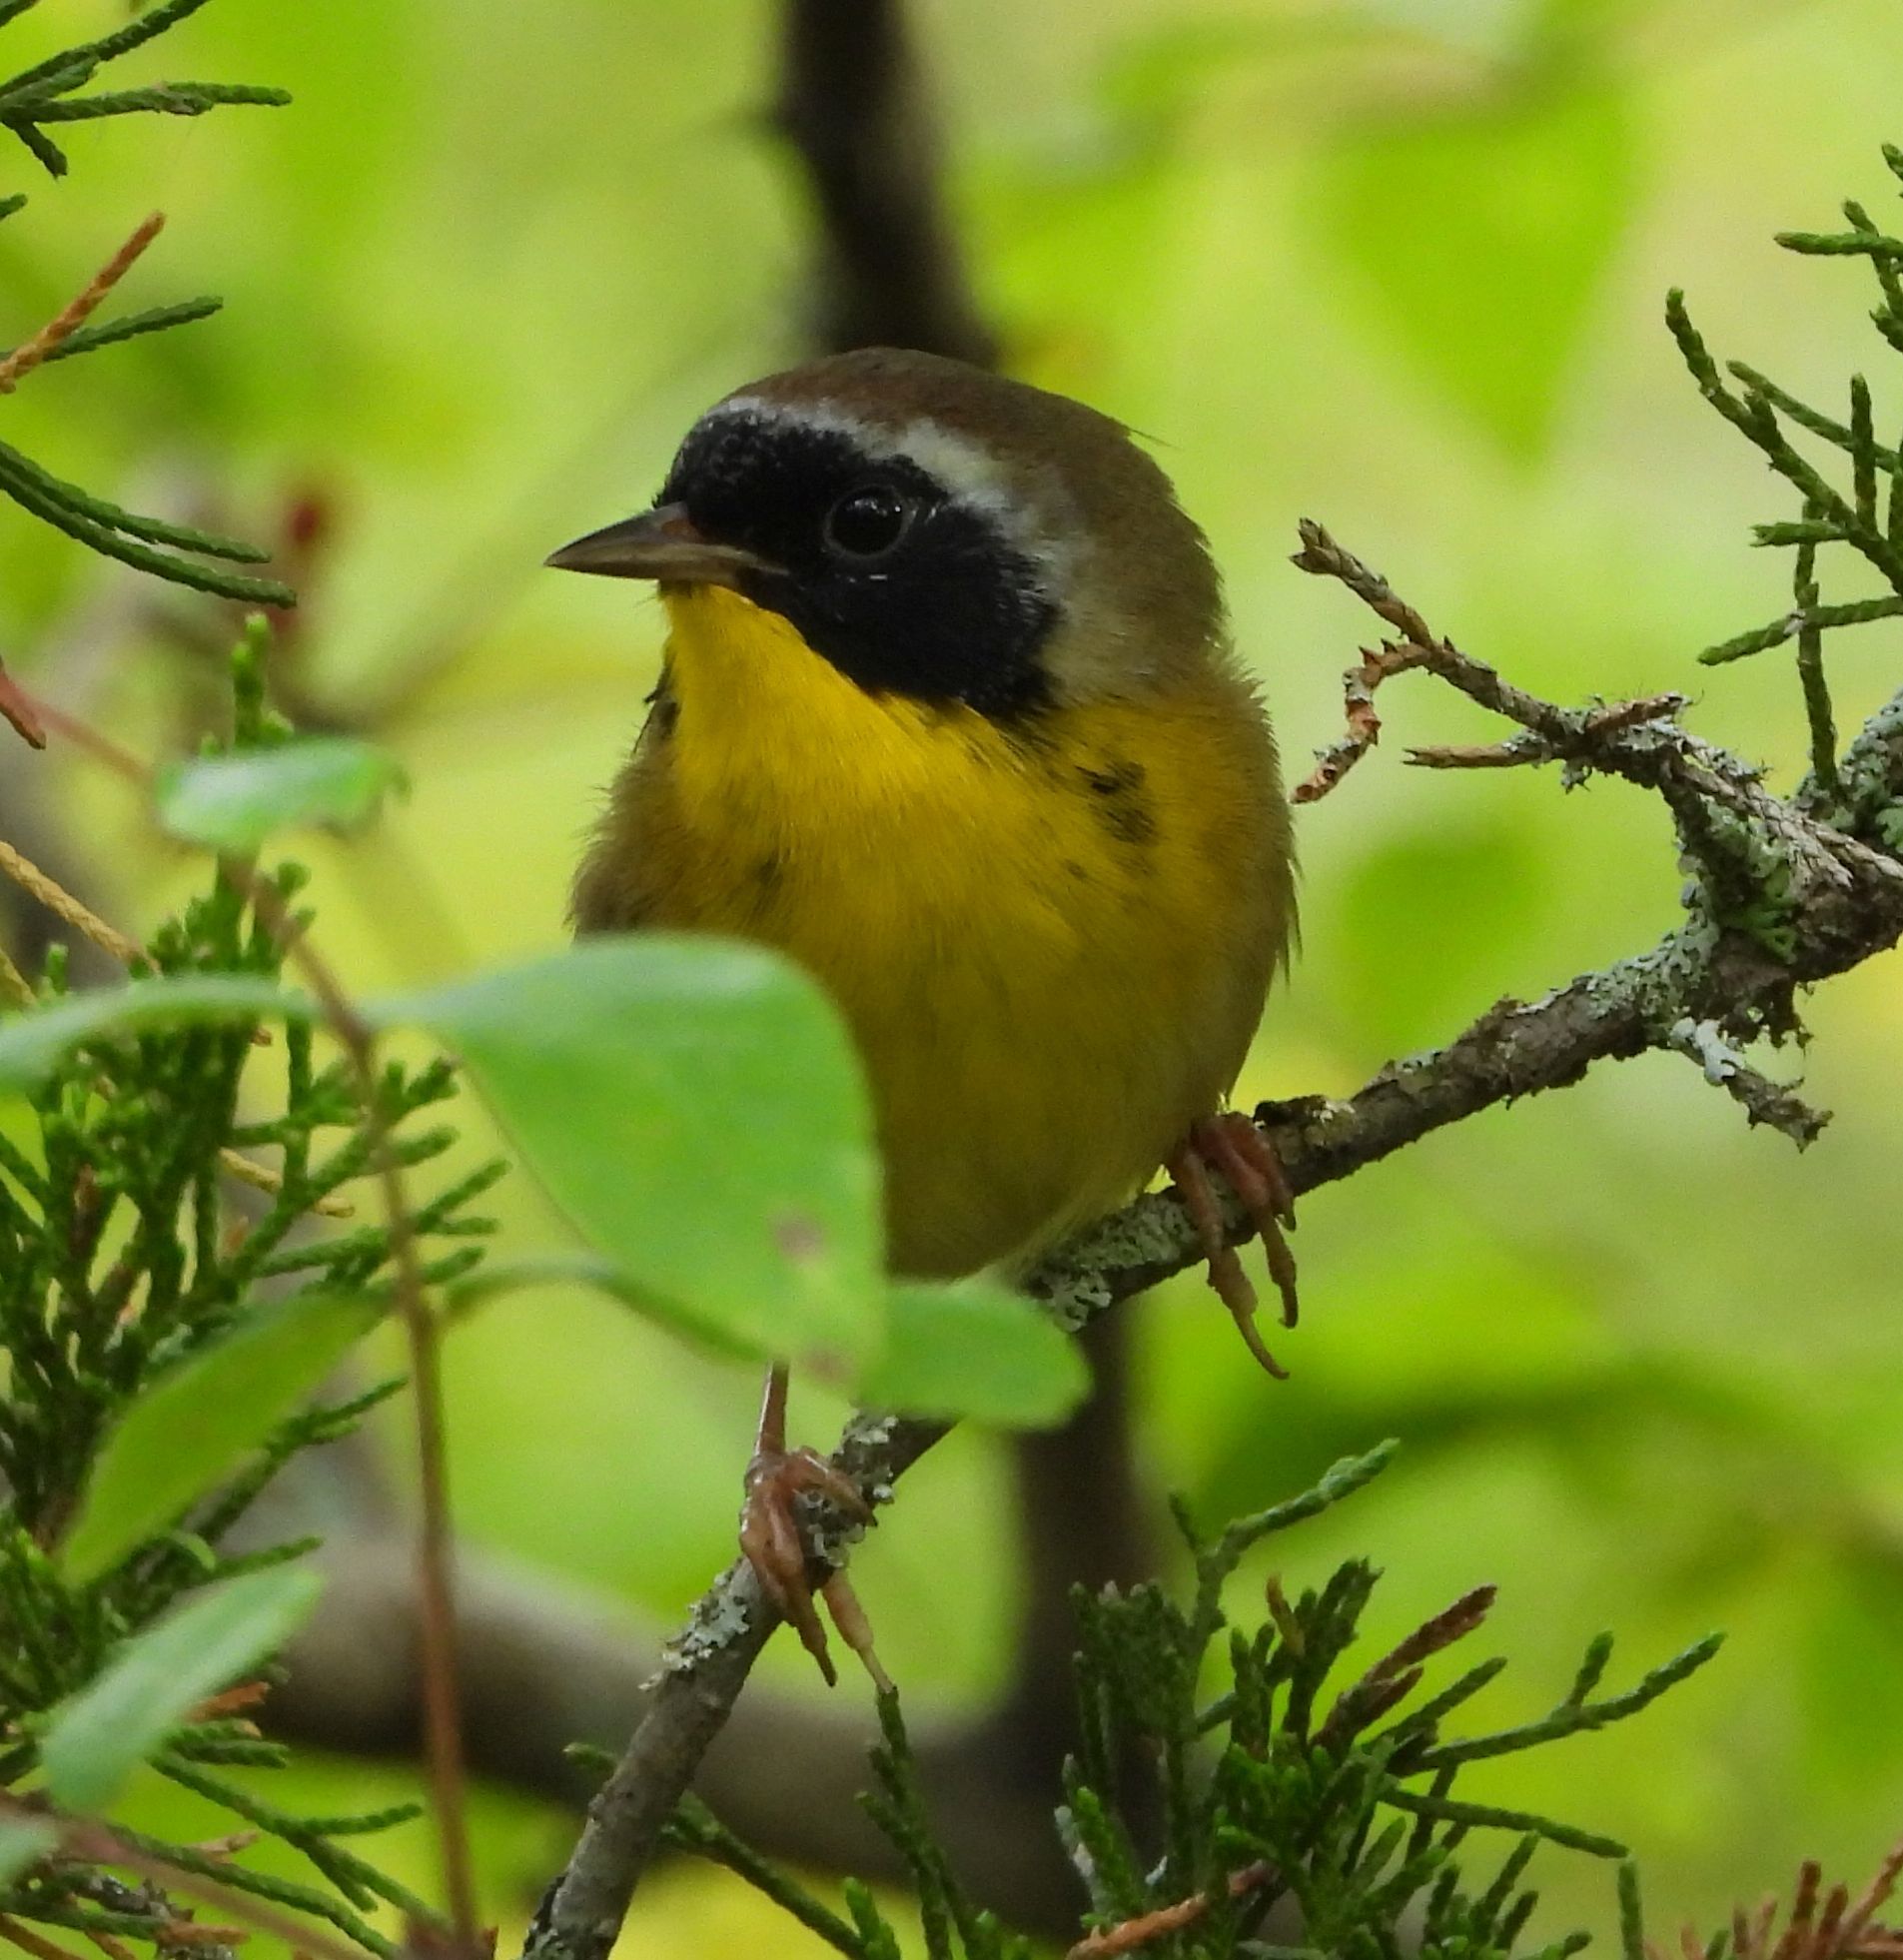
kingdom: Animalia
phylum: Chordata
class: Aves
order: Passeriformes
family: Parulidae
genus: Geothlypis
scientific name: Geothlypis trichas
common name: Common yellowthroat
